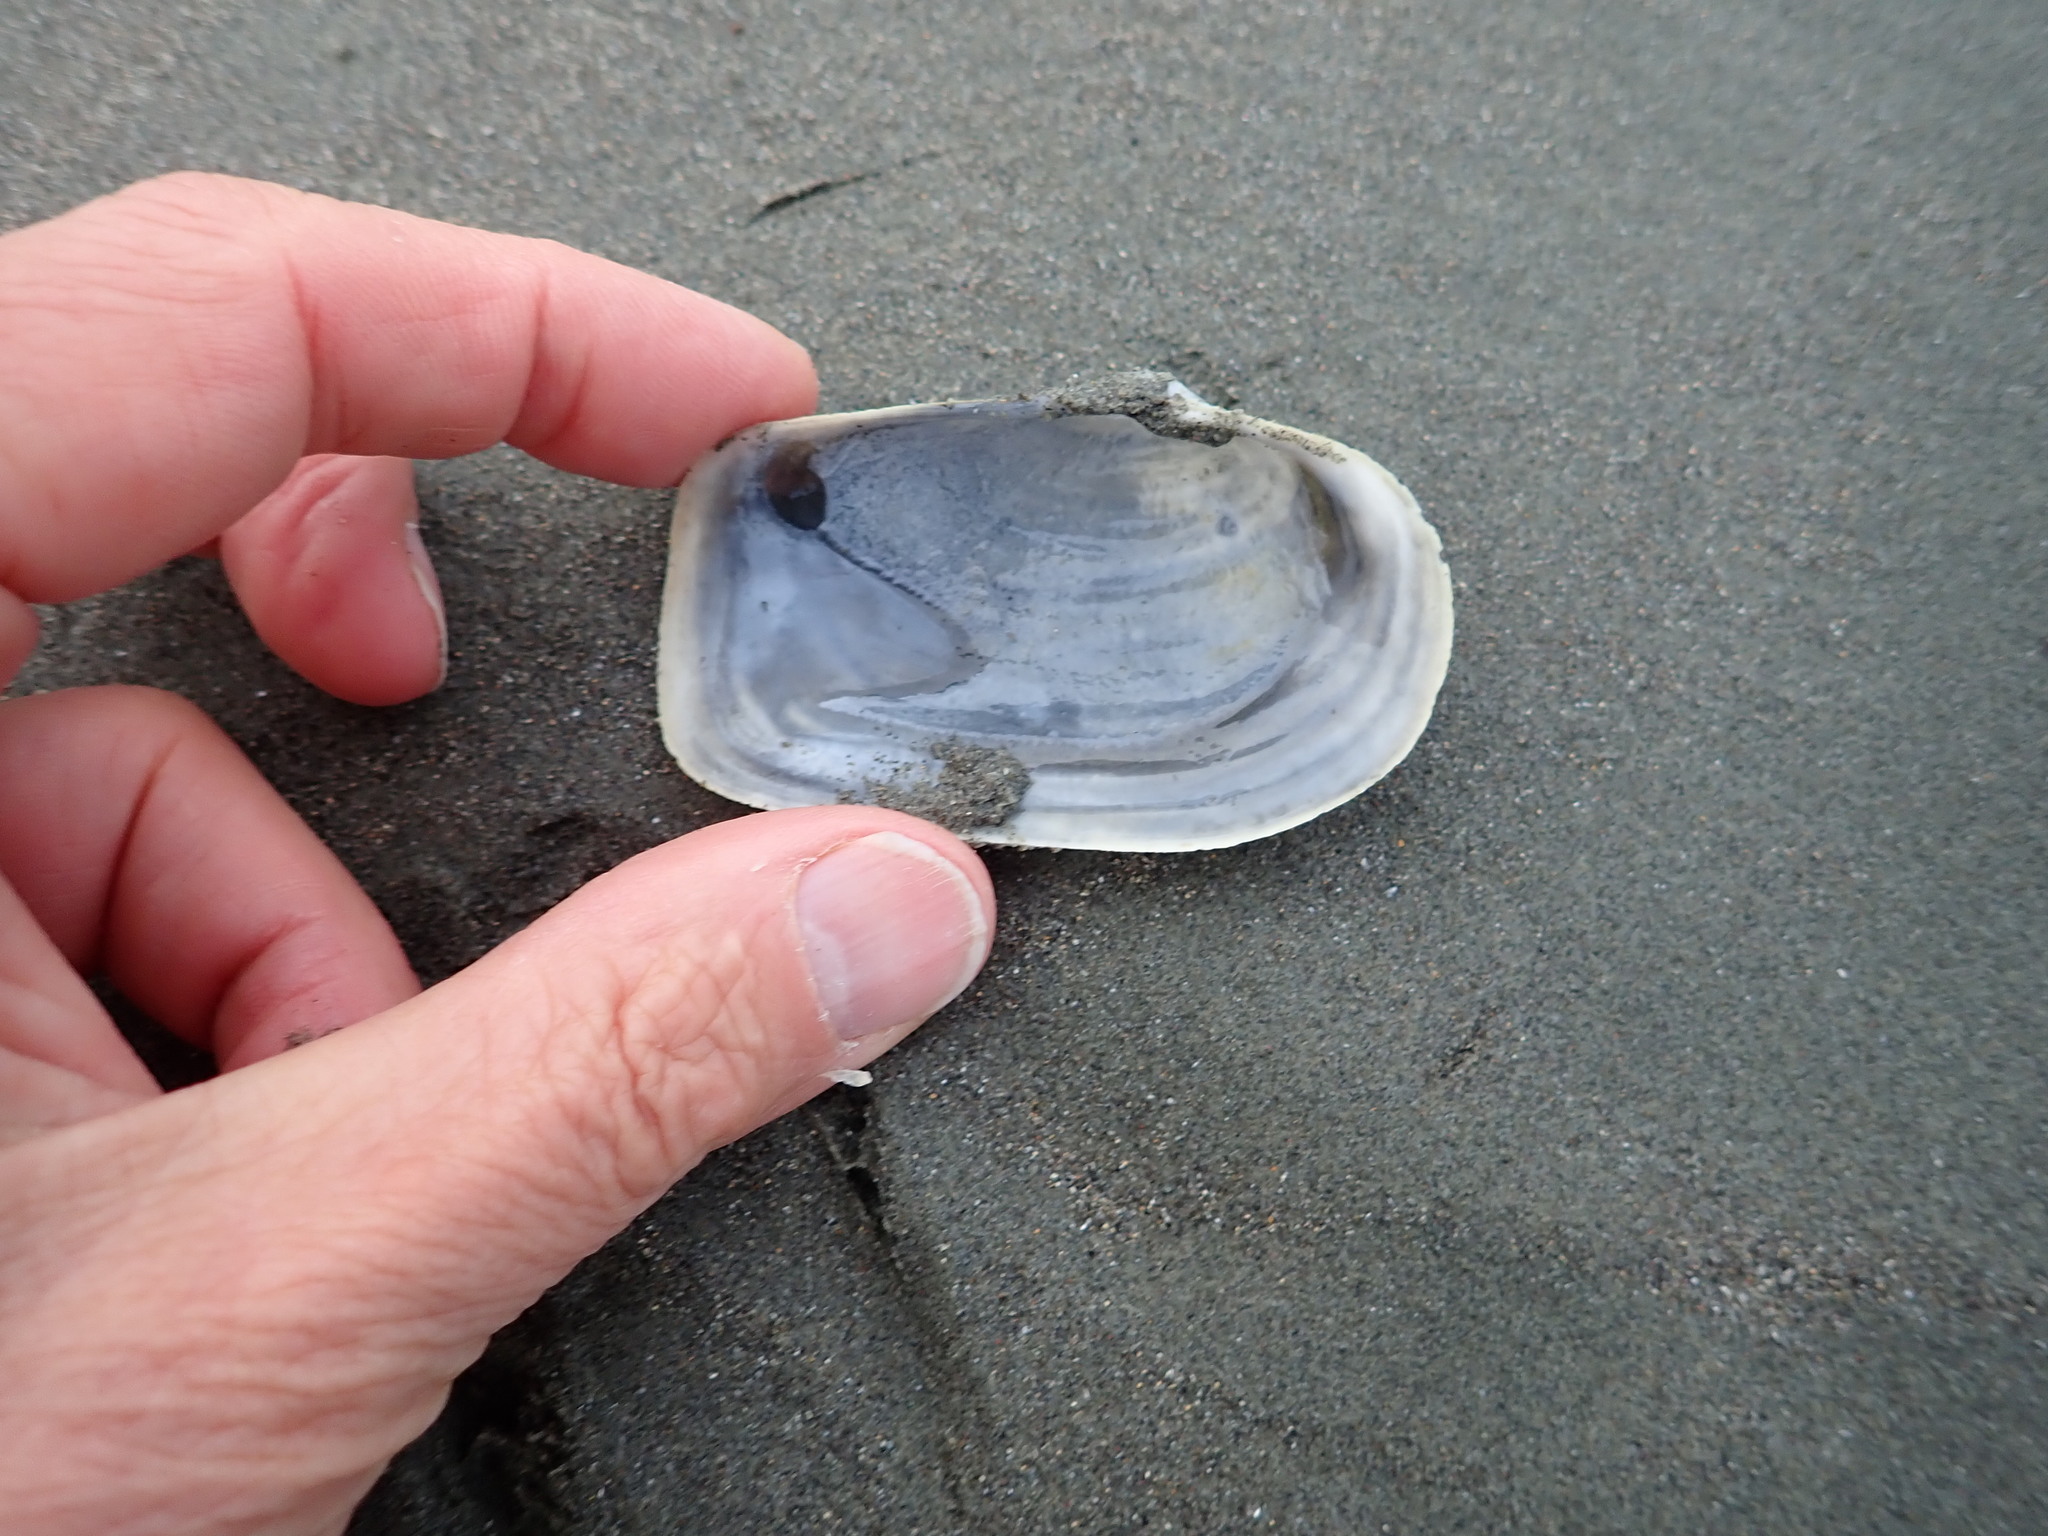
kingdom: Animalia
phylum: Mollusca
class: Bivalvia
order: Adapedonta
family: Hiatellidae
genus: Panopea
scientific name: Panopea zelandica
